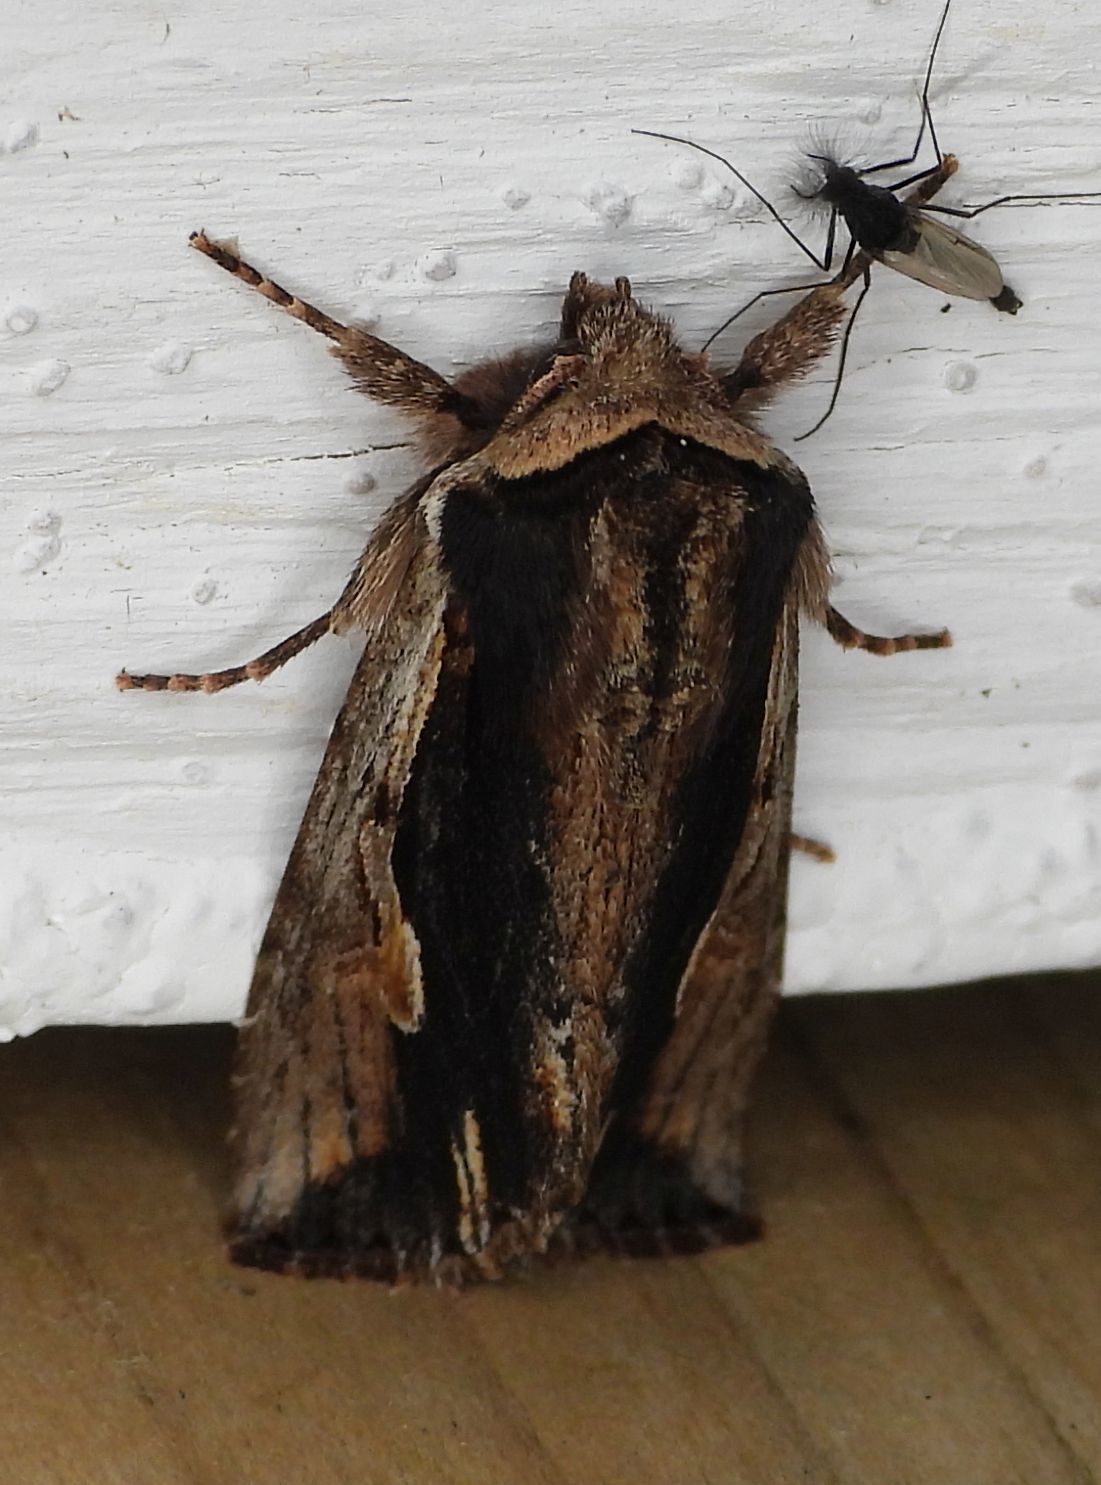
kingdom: Animalia
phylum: Arthropoda
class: Insecta
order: Lepidoptera
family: Noctuidae
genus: Achatia
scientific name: Achatia evicta
